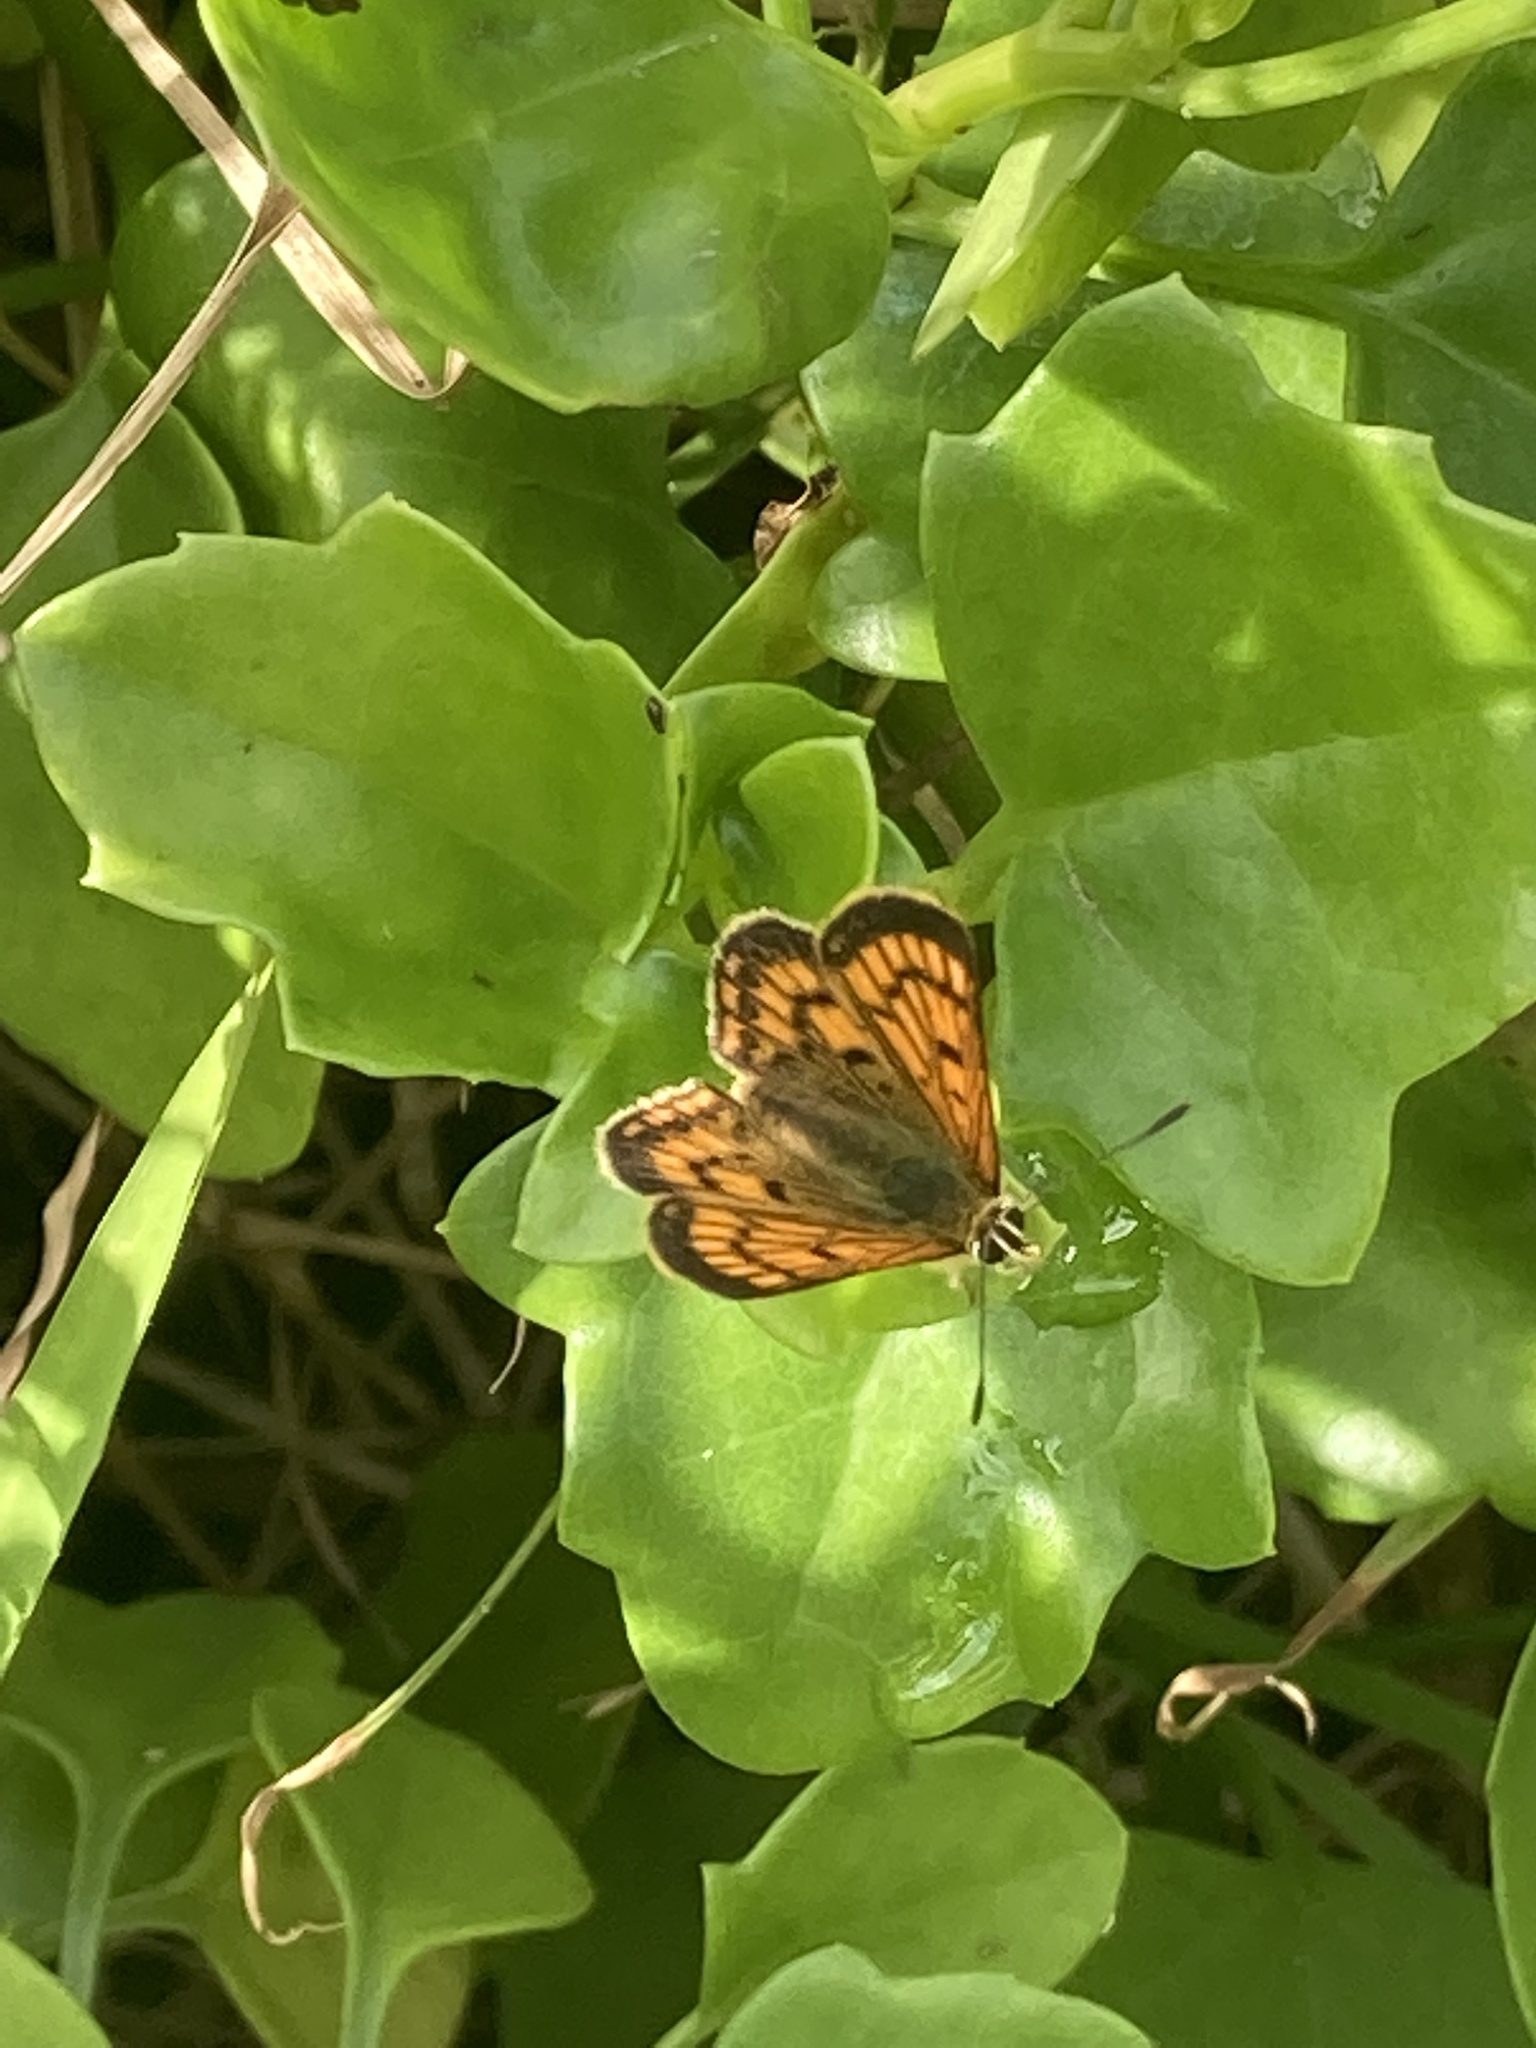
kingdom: Animalia
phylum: Arthropoda
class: Insecta
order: Lepidoptera
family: Lycaenidae
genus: Lycaena
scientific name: Lycaena salustius
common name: North island coastal copper
